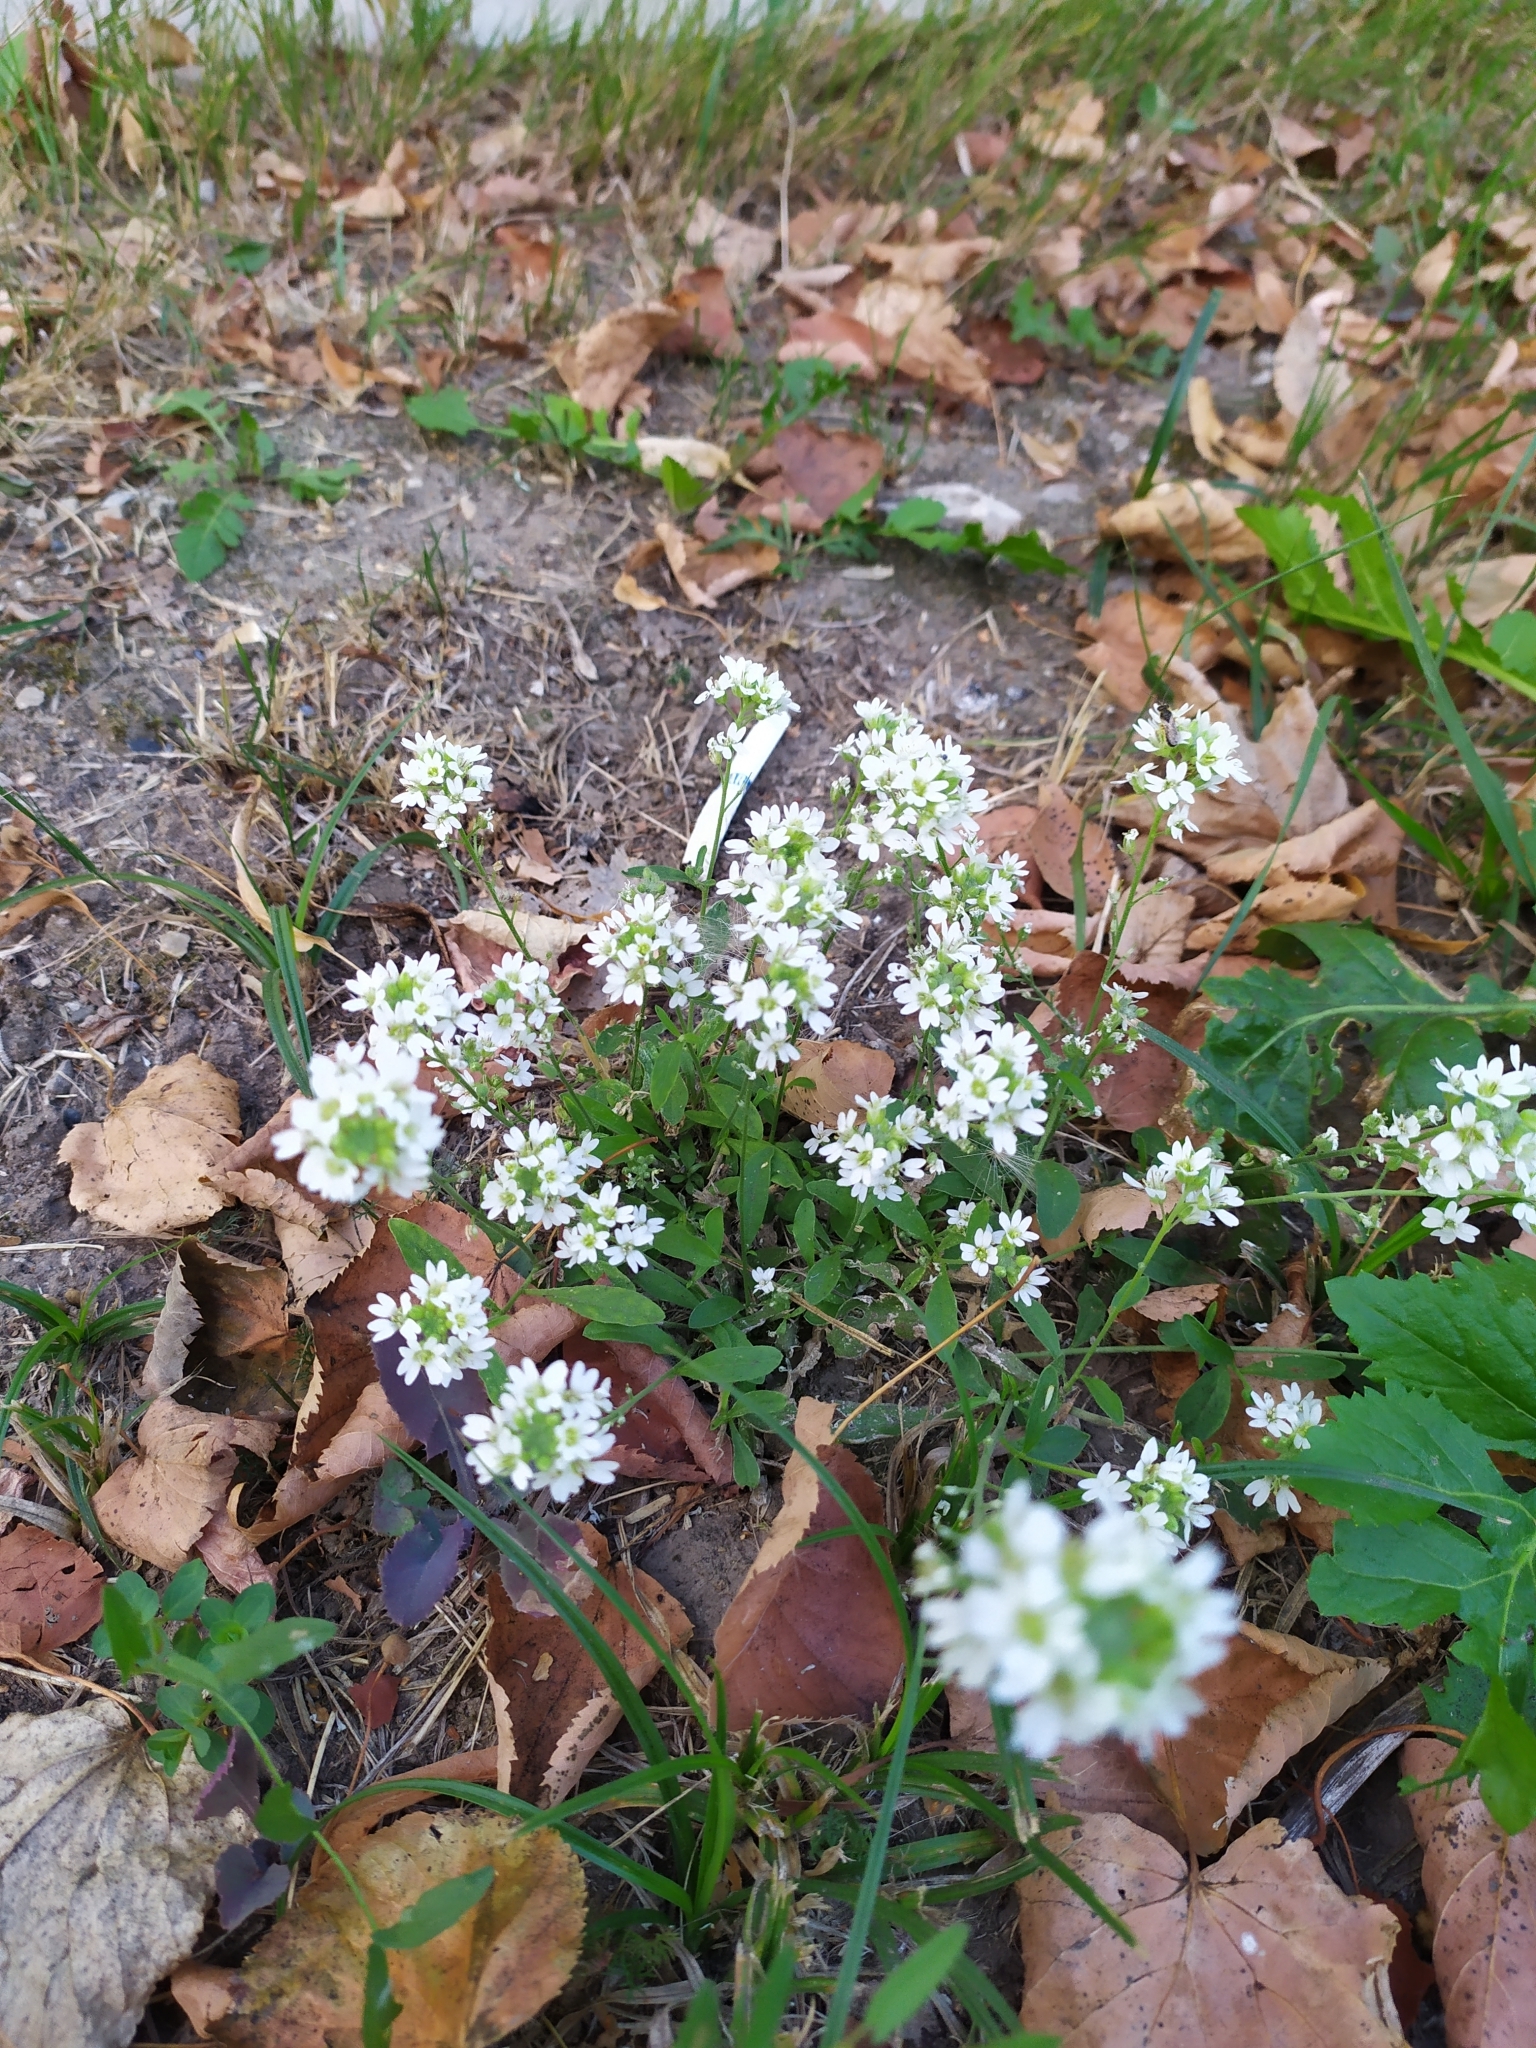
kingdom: Plantae
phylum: Tracheophyta
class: Magnoliopsida
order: Brassicales
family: Brassicaceae
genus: Berteroa
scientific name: Berteroa incana
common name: Hoary alison
